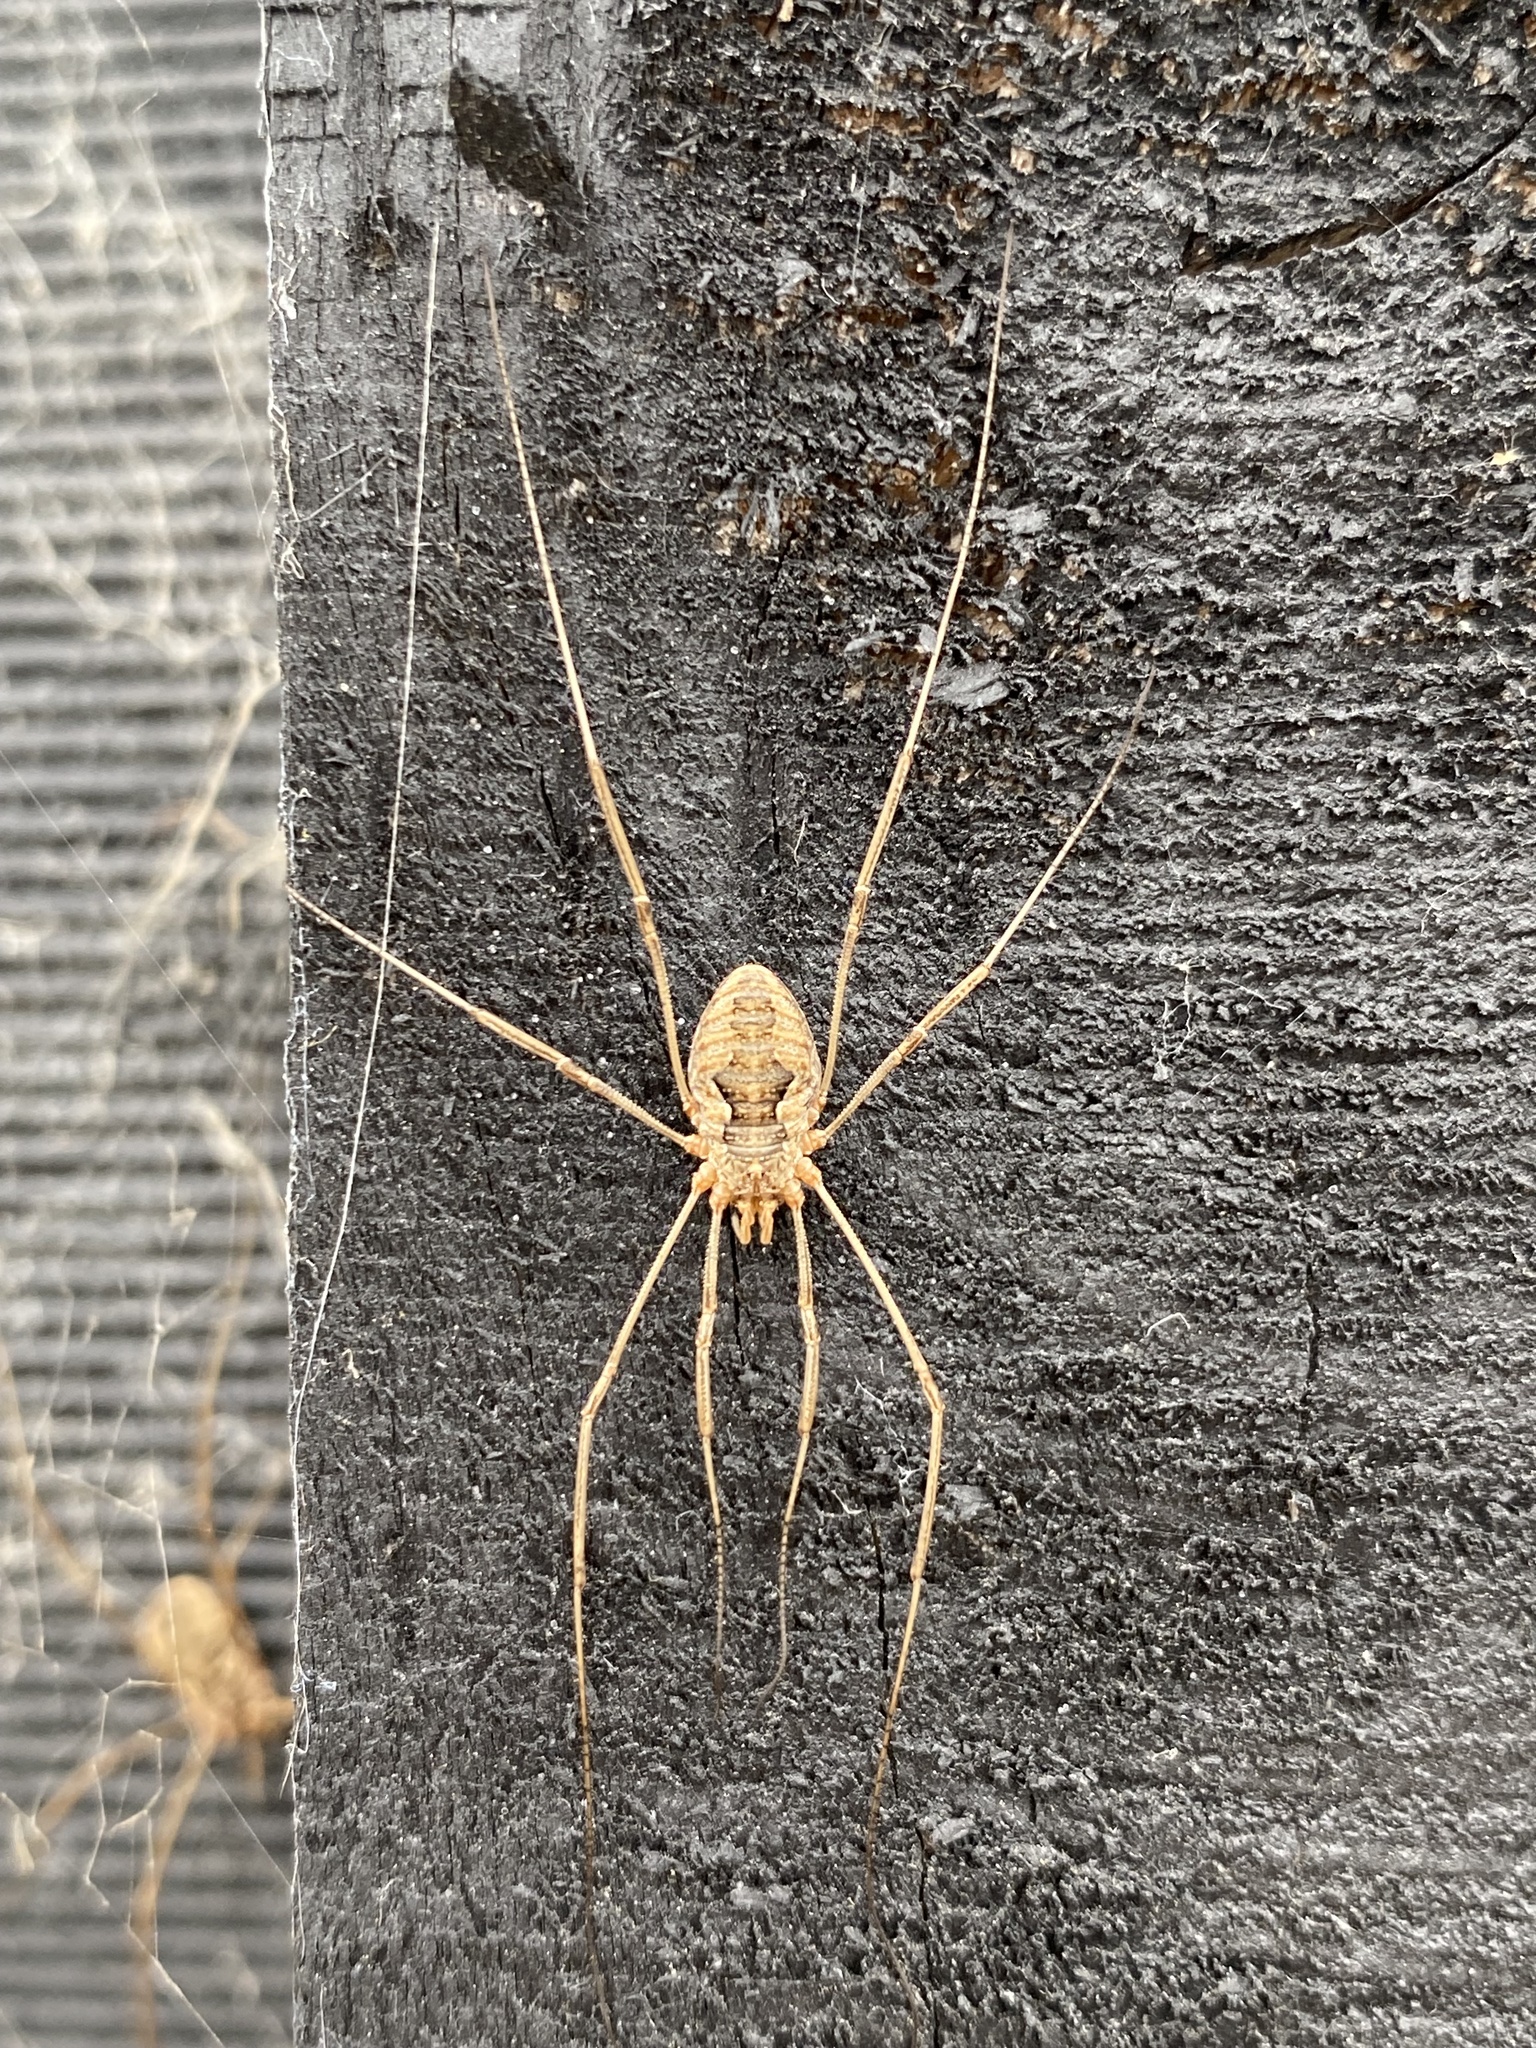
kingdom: Animalia
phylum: Arthropoda
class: Arachnida
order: Opiliones
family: Phalangiidae
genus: Phalangium
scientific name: Phalangium opilio
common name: Daddy longleg
